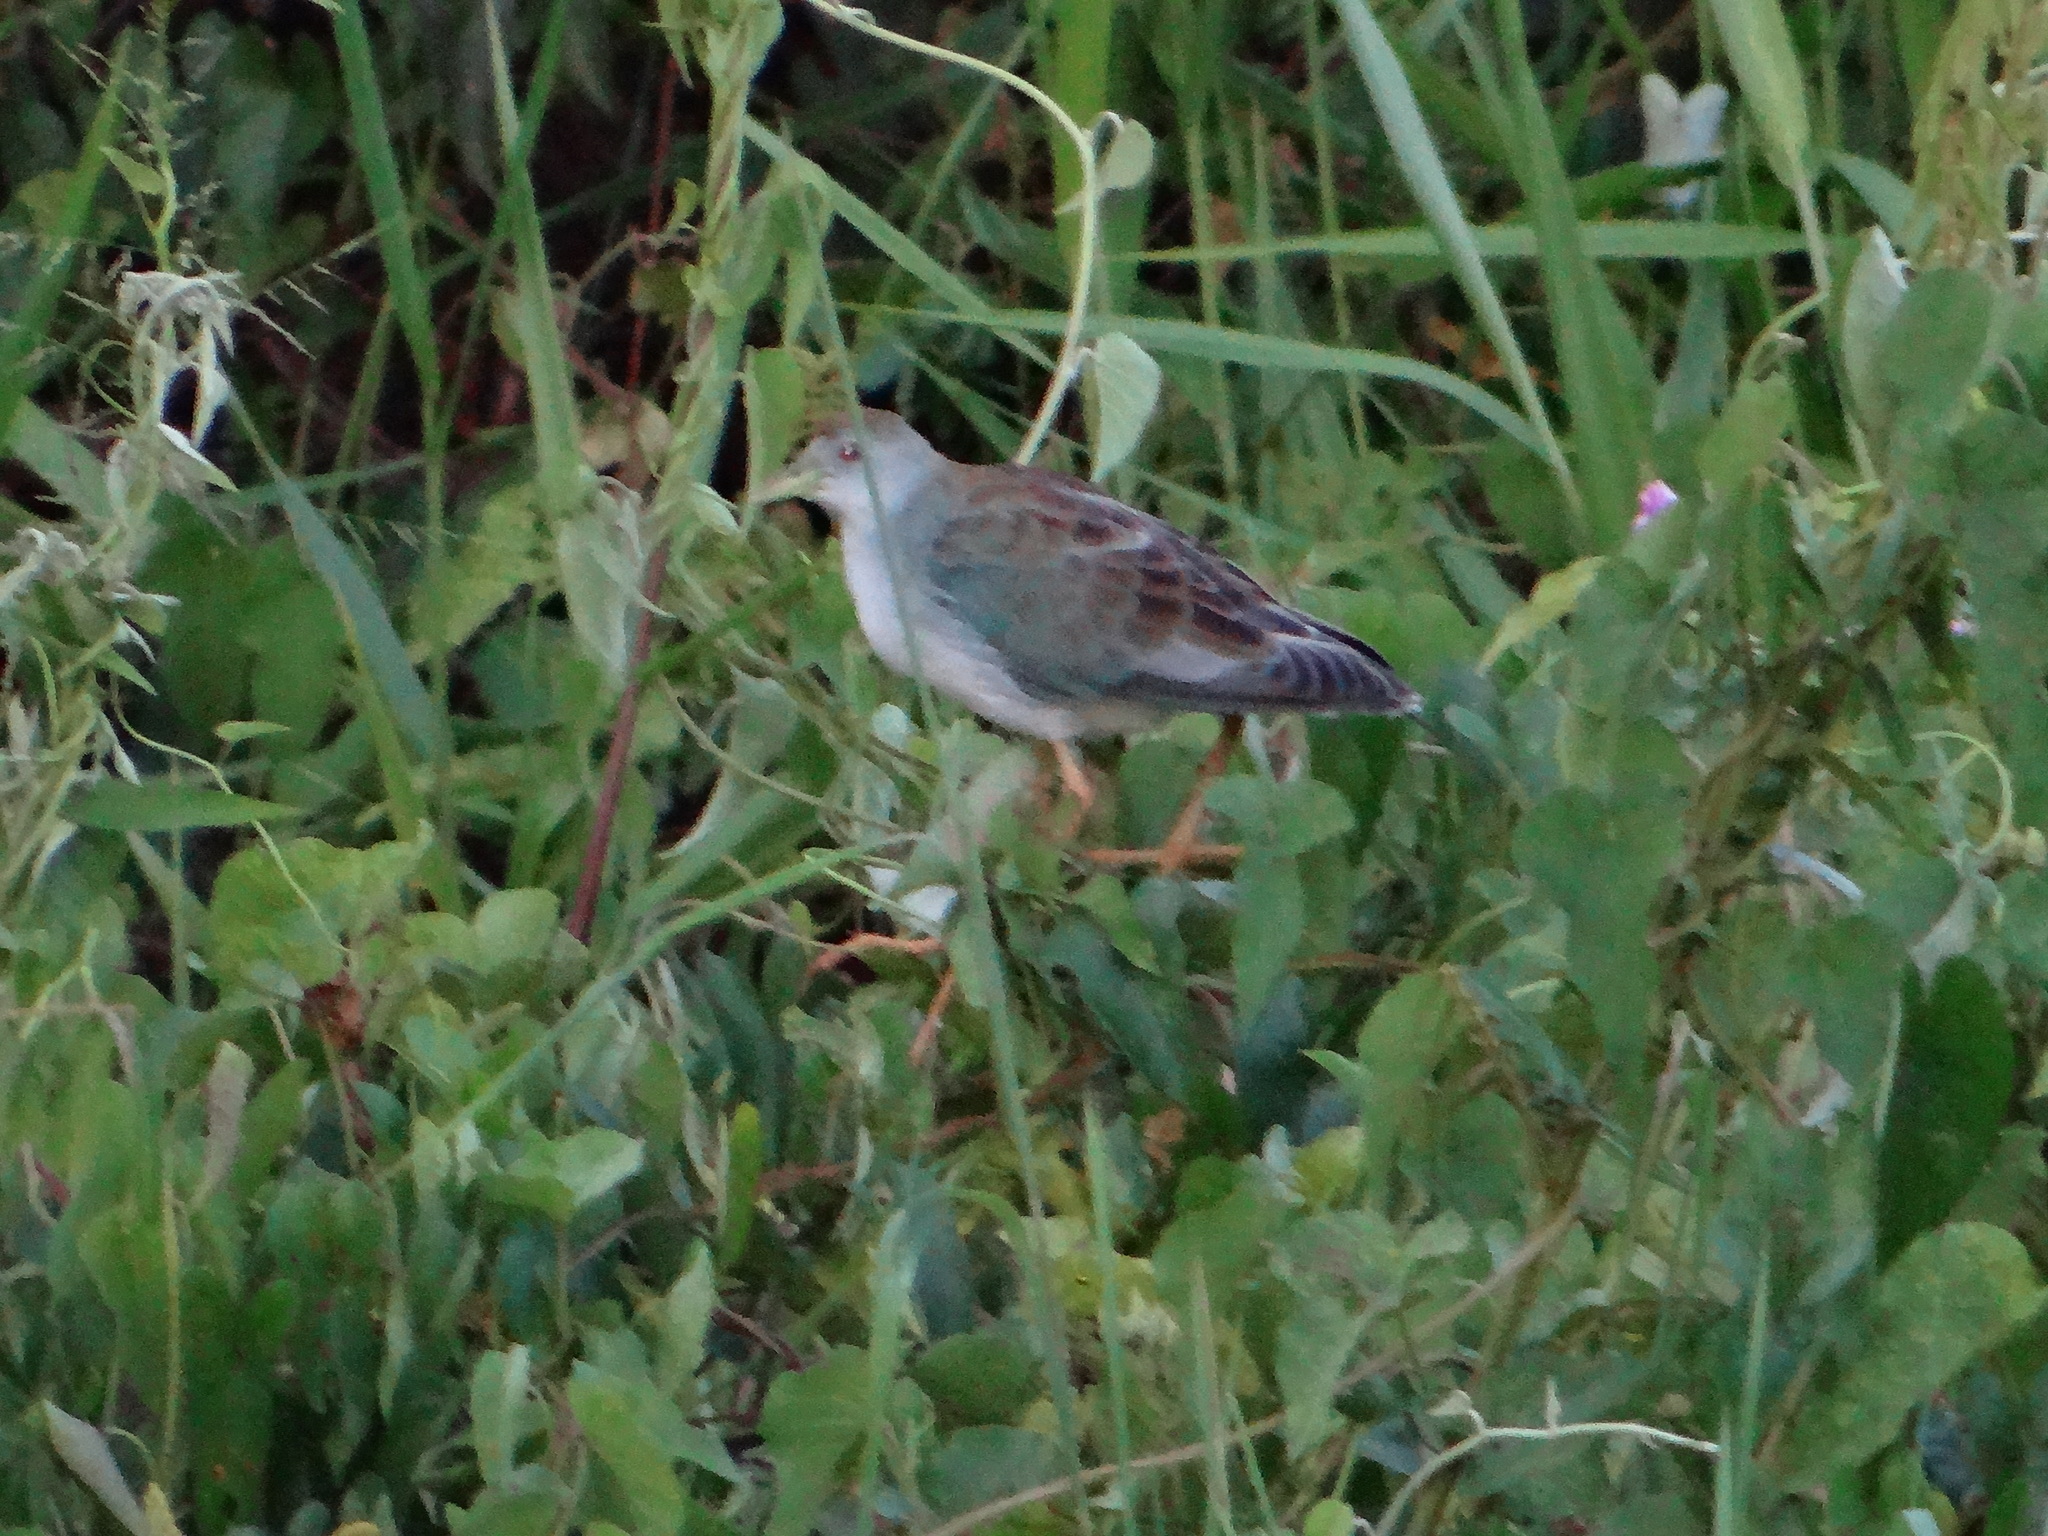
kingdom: Animalia
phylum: Chordata
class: Aves
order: Gruiformes
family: Rallidae
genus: Porphyrio
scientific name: Porphyrio martinica
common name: Purple gallinule
